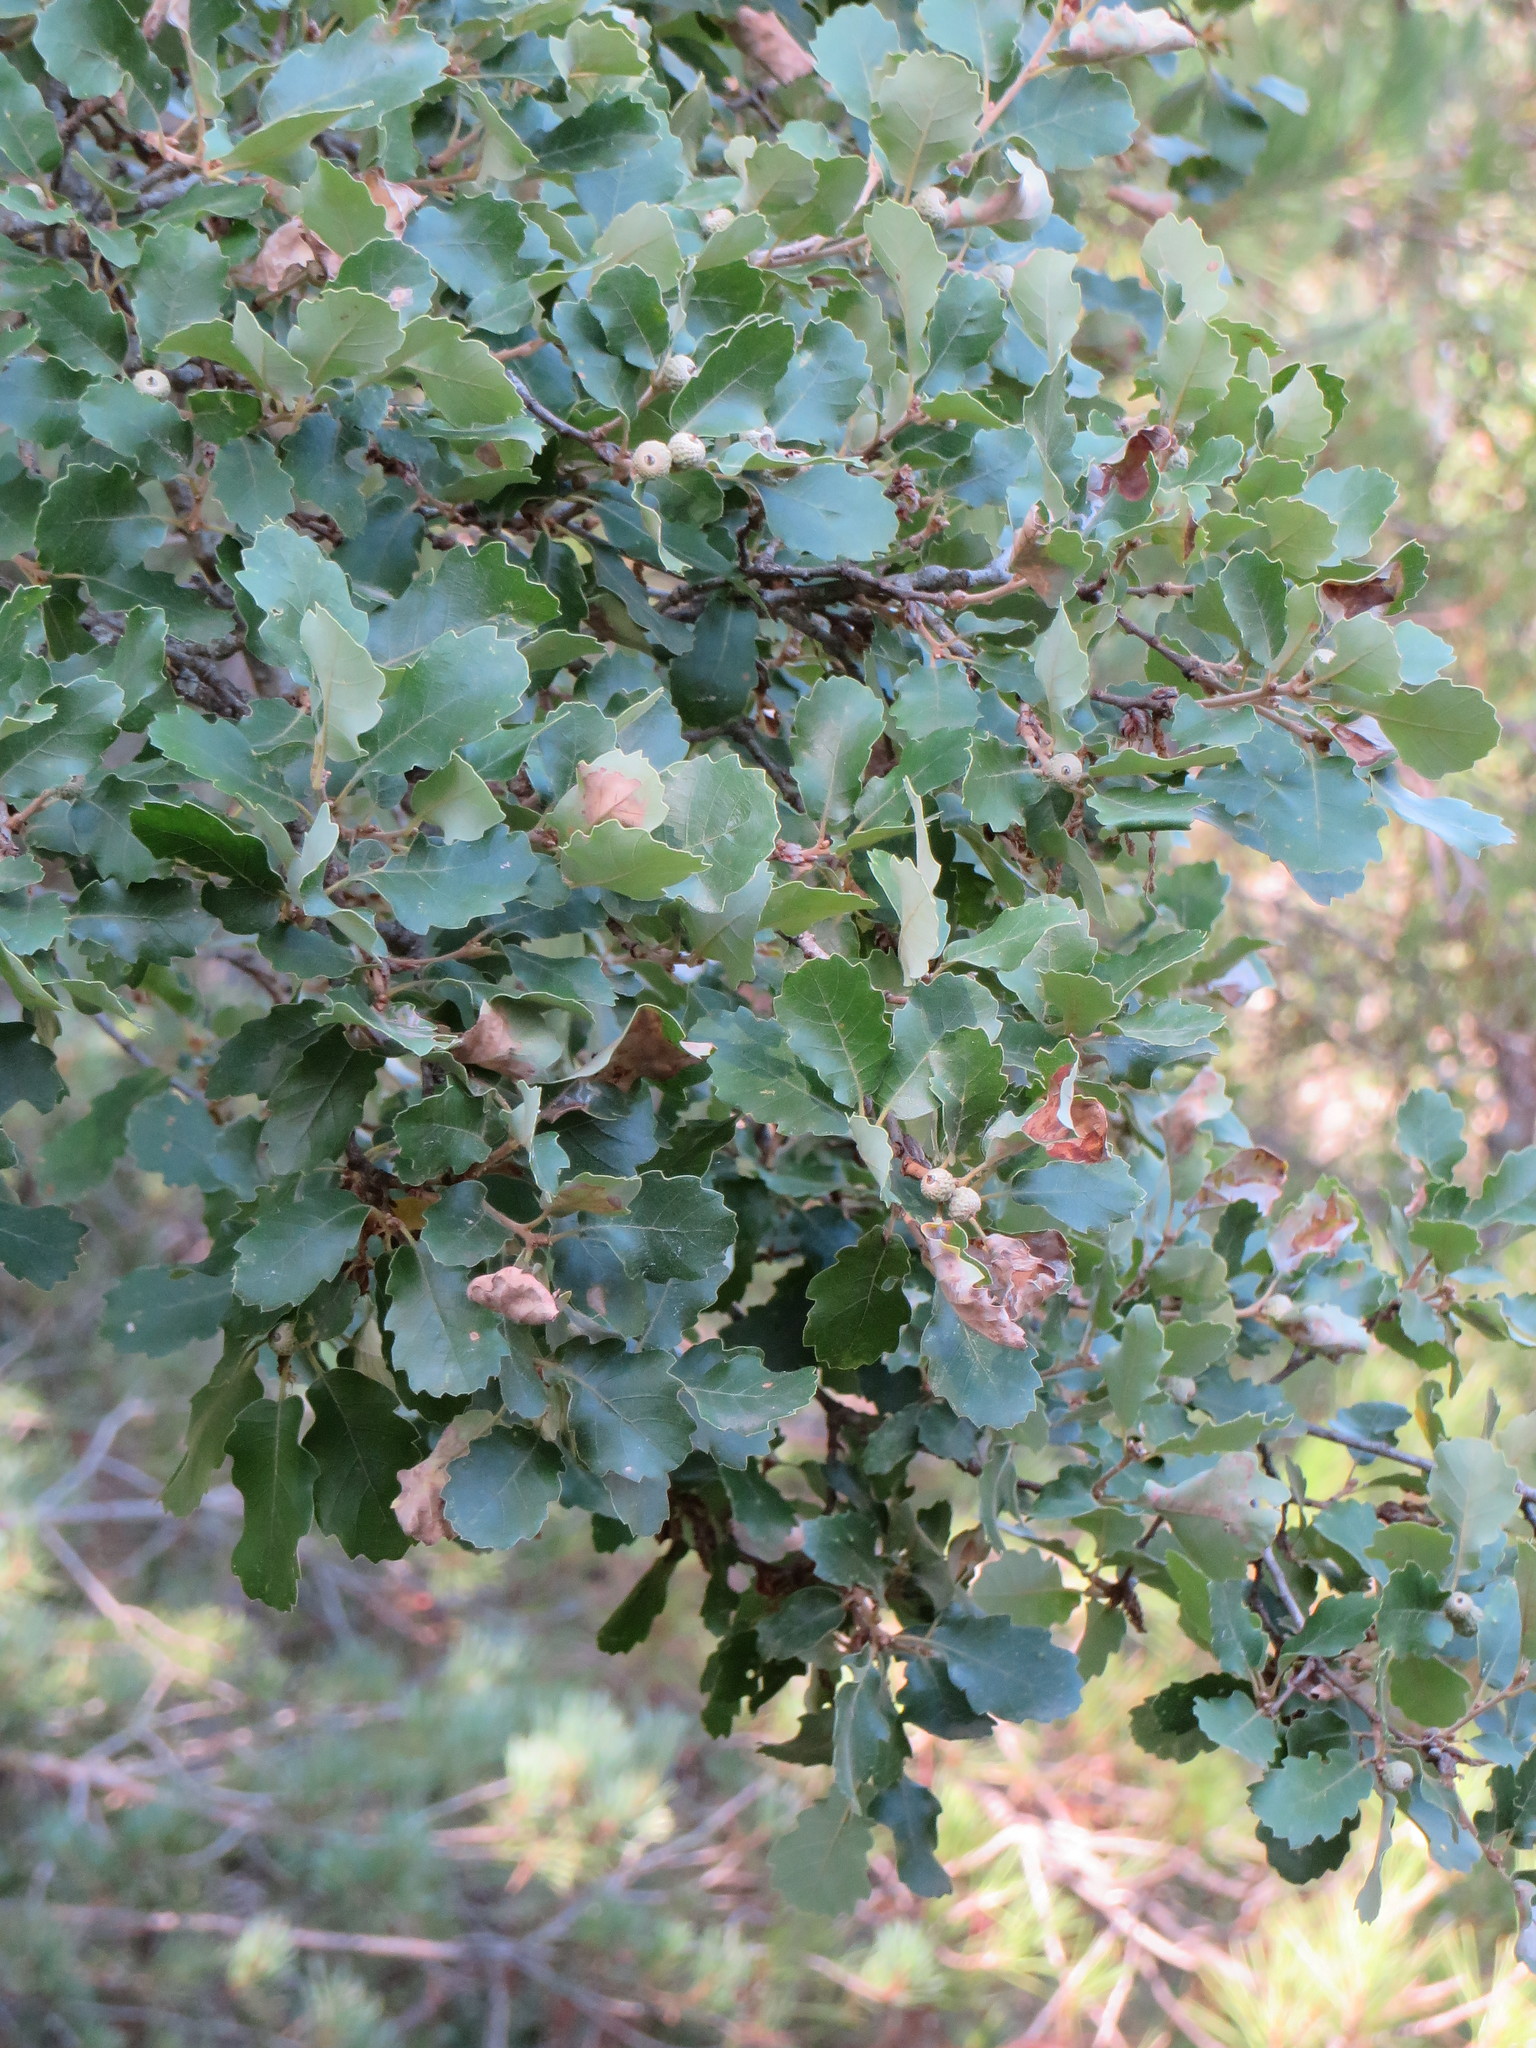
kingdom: Plantae
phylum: Tracheophyta
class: Magnoliopsida
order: Fagales
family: Fagaceae
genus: Quercus
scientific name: Quercus faginea
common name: Gall oak tree
